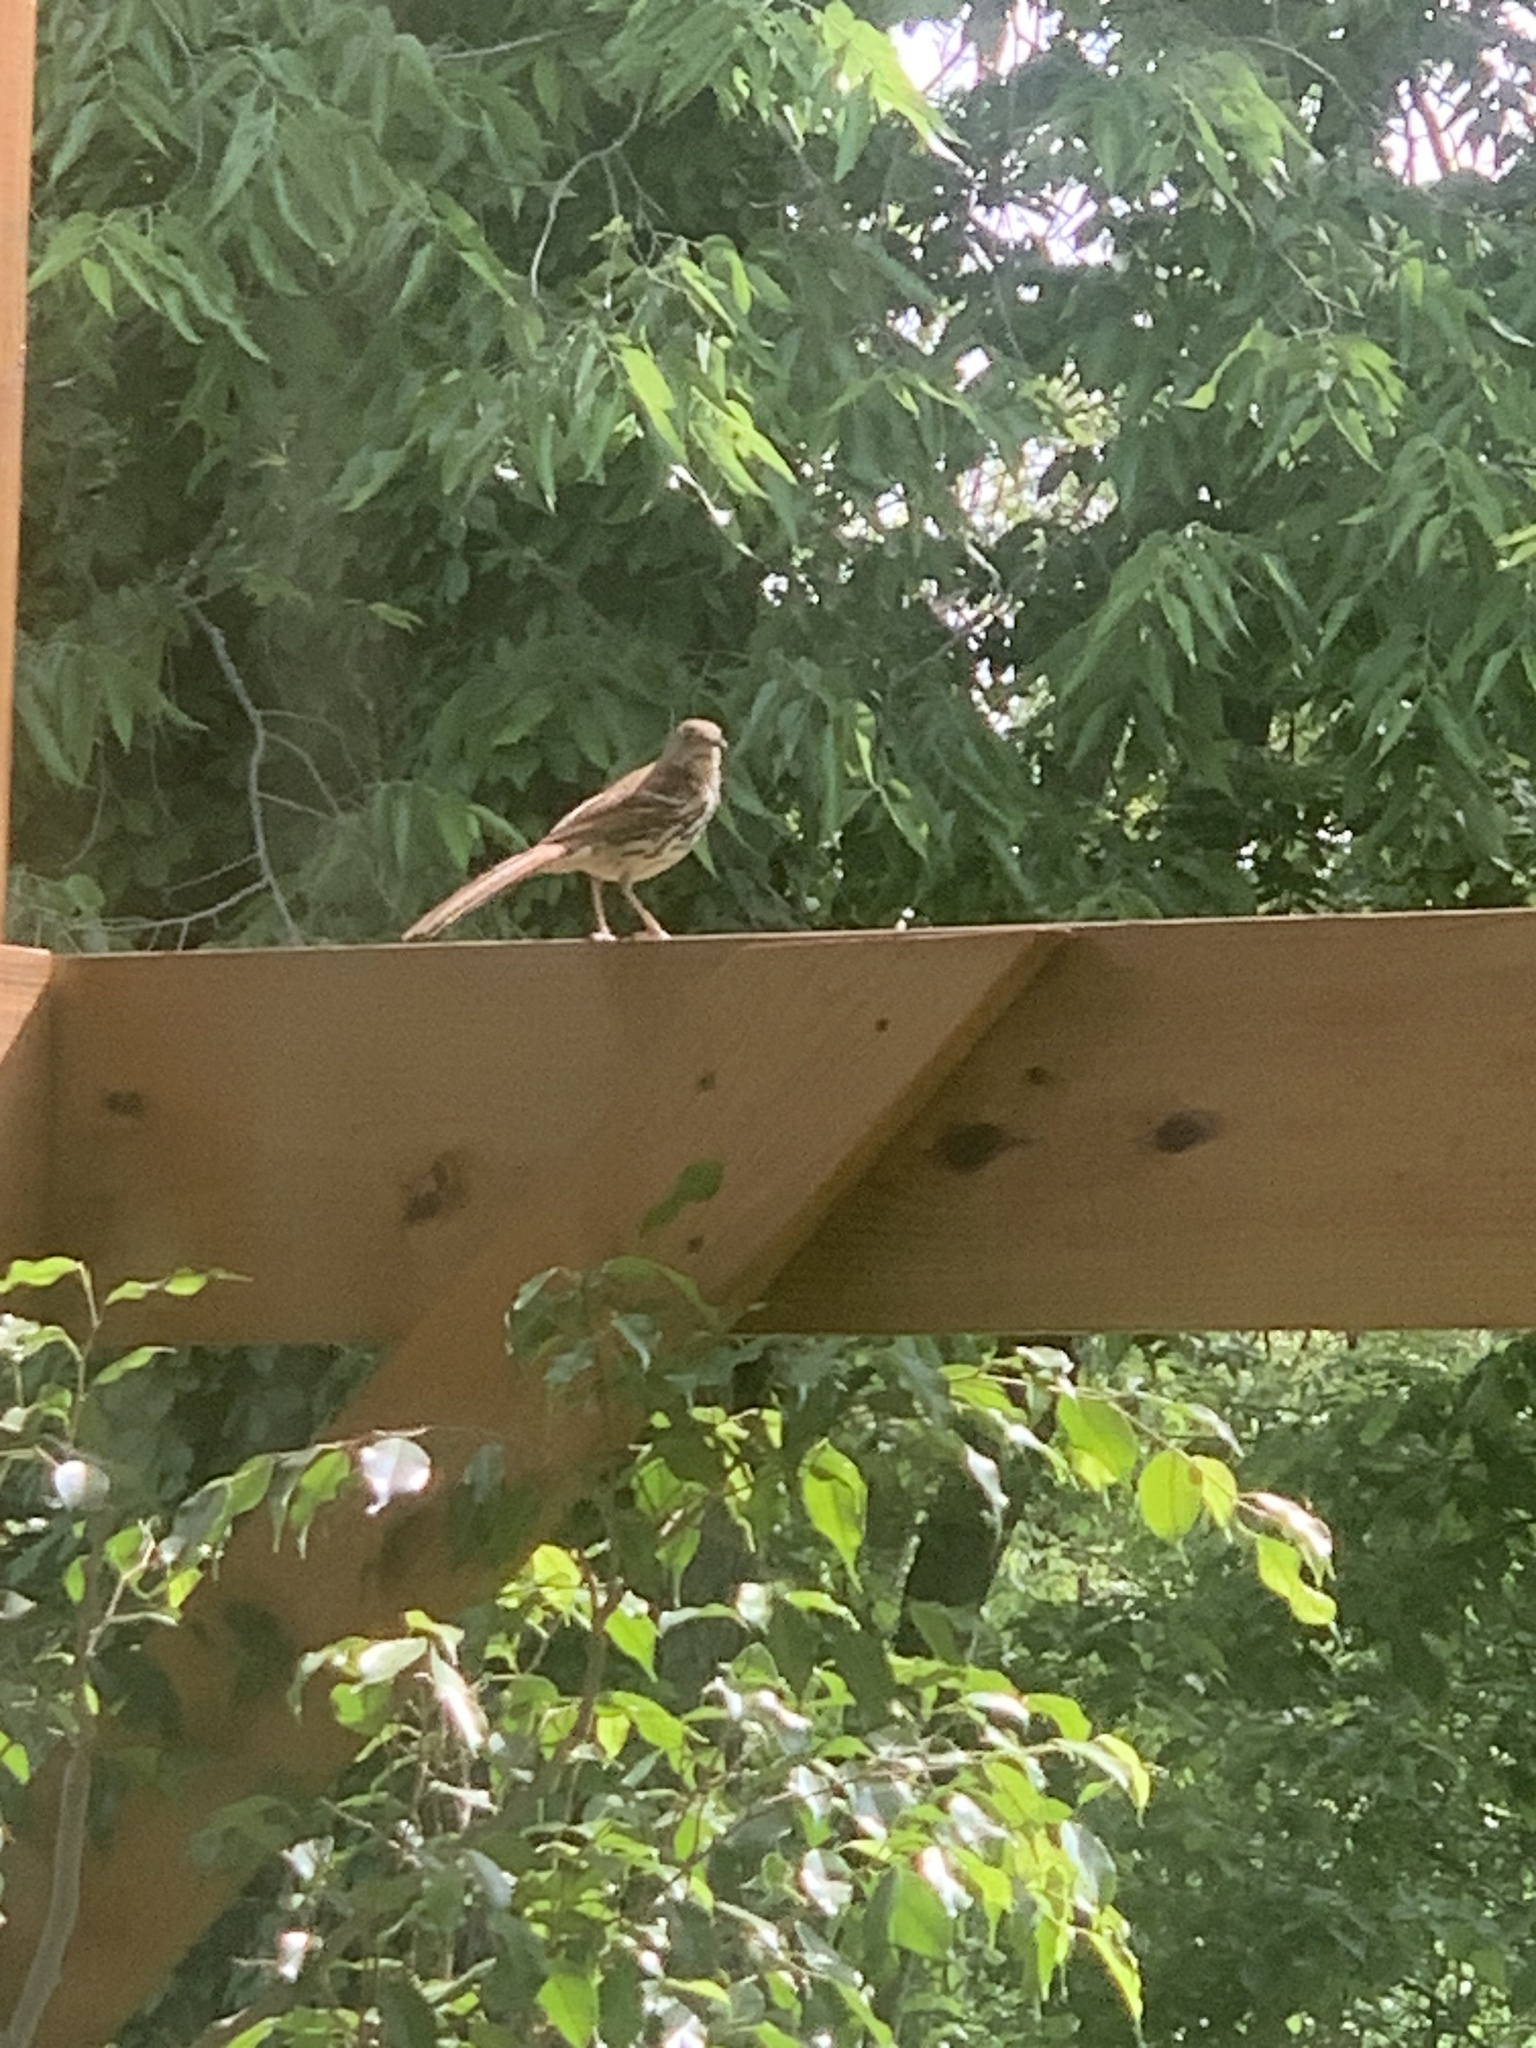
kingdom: Animalia
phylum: Chordata
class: Aves
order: Passeriformes
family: Mimidae
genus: Toxostoma
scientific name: Toxostoma rufum
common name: Brown thrasher
